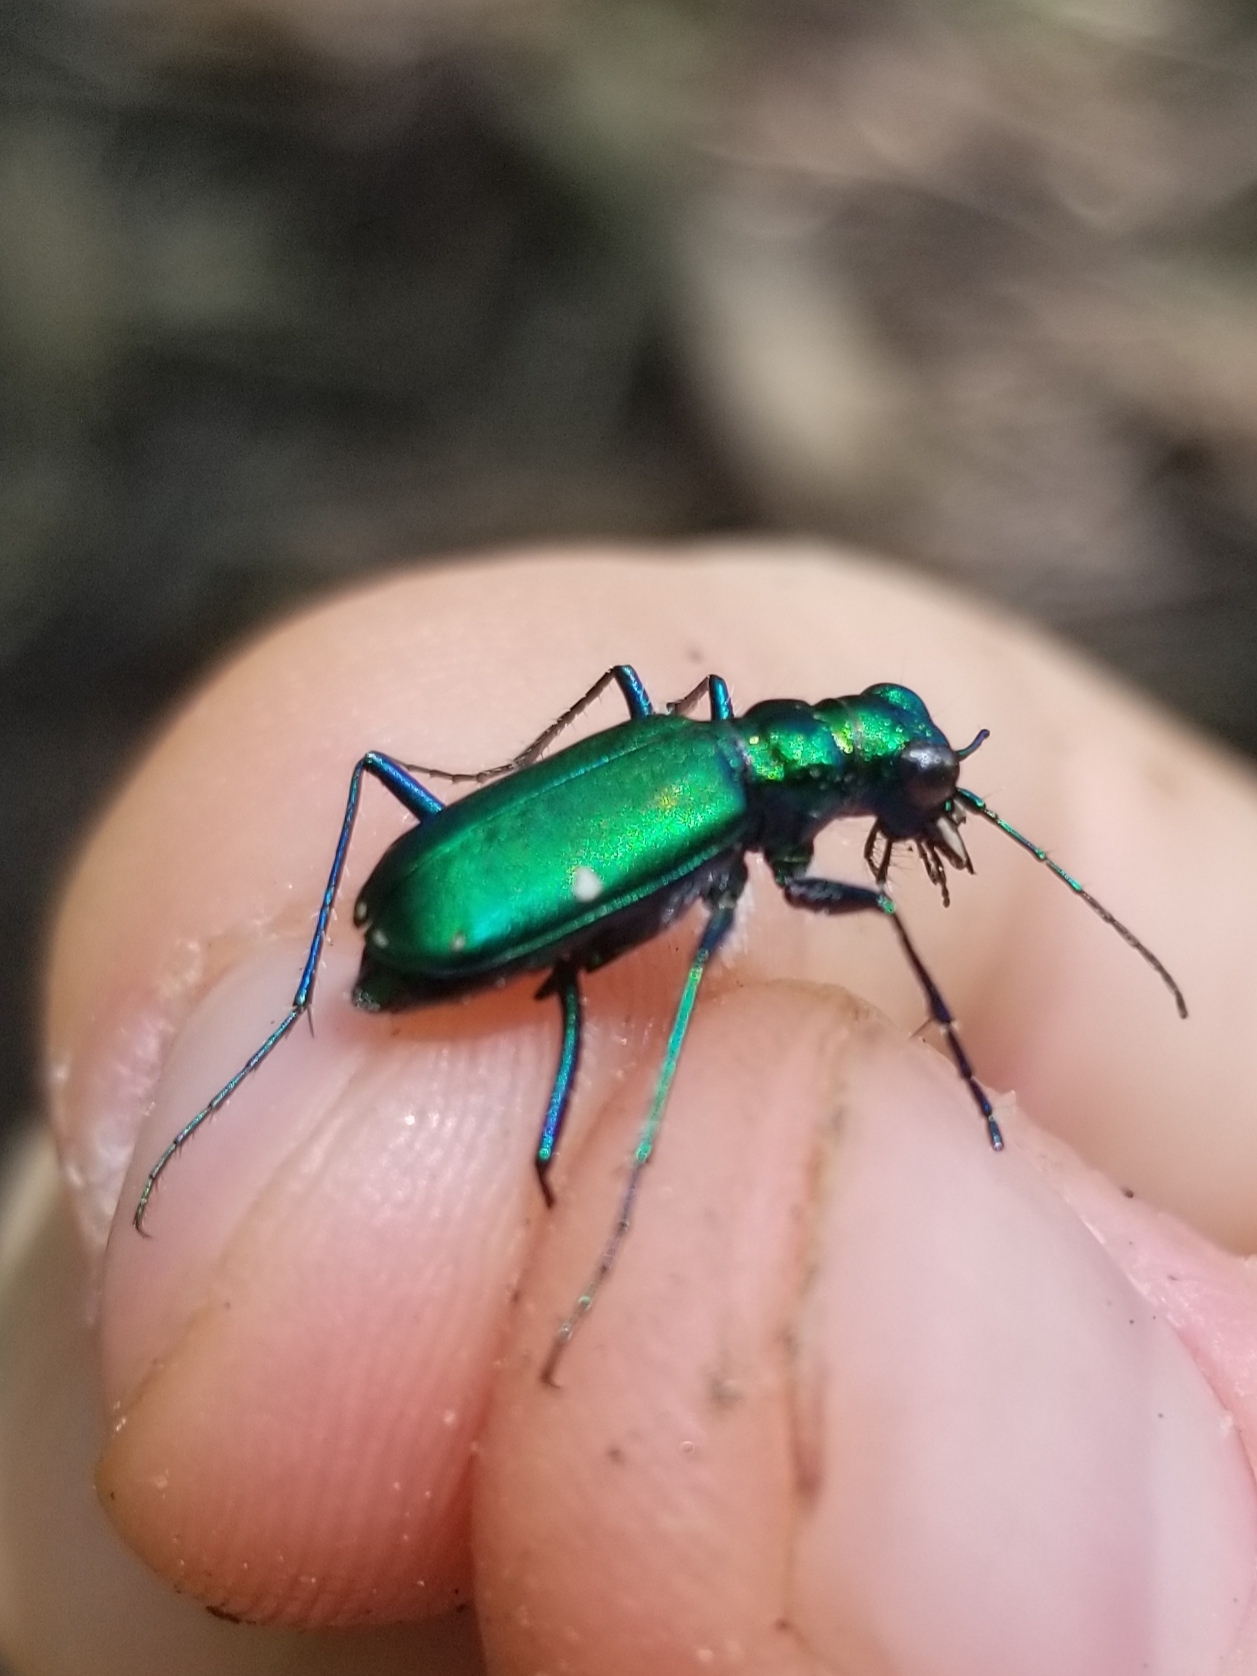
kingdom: Animalia
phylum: Arthropoda
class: Insecta
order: Coleoptera
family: Carabidae
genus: Cicindela
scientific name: Cicindela sexguttata
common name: Six-spotted tiger beetle
